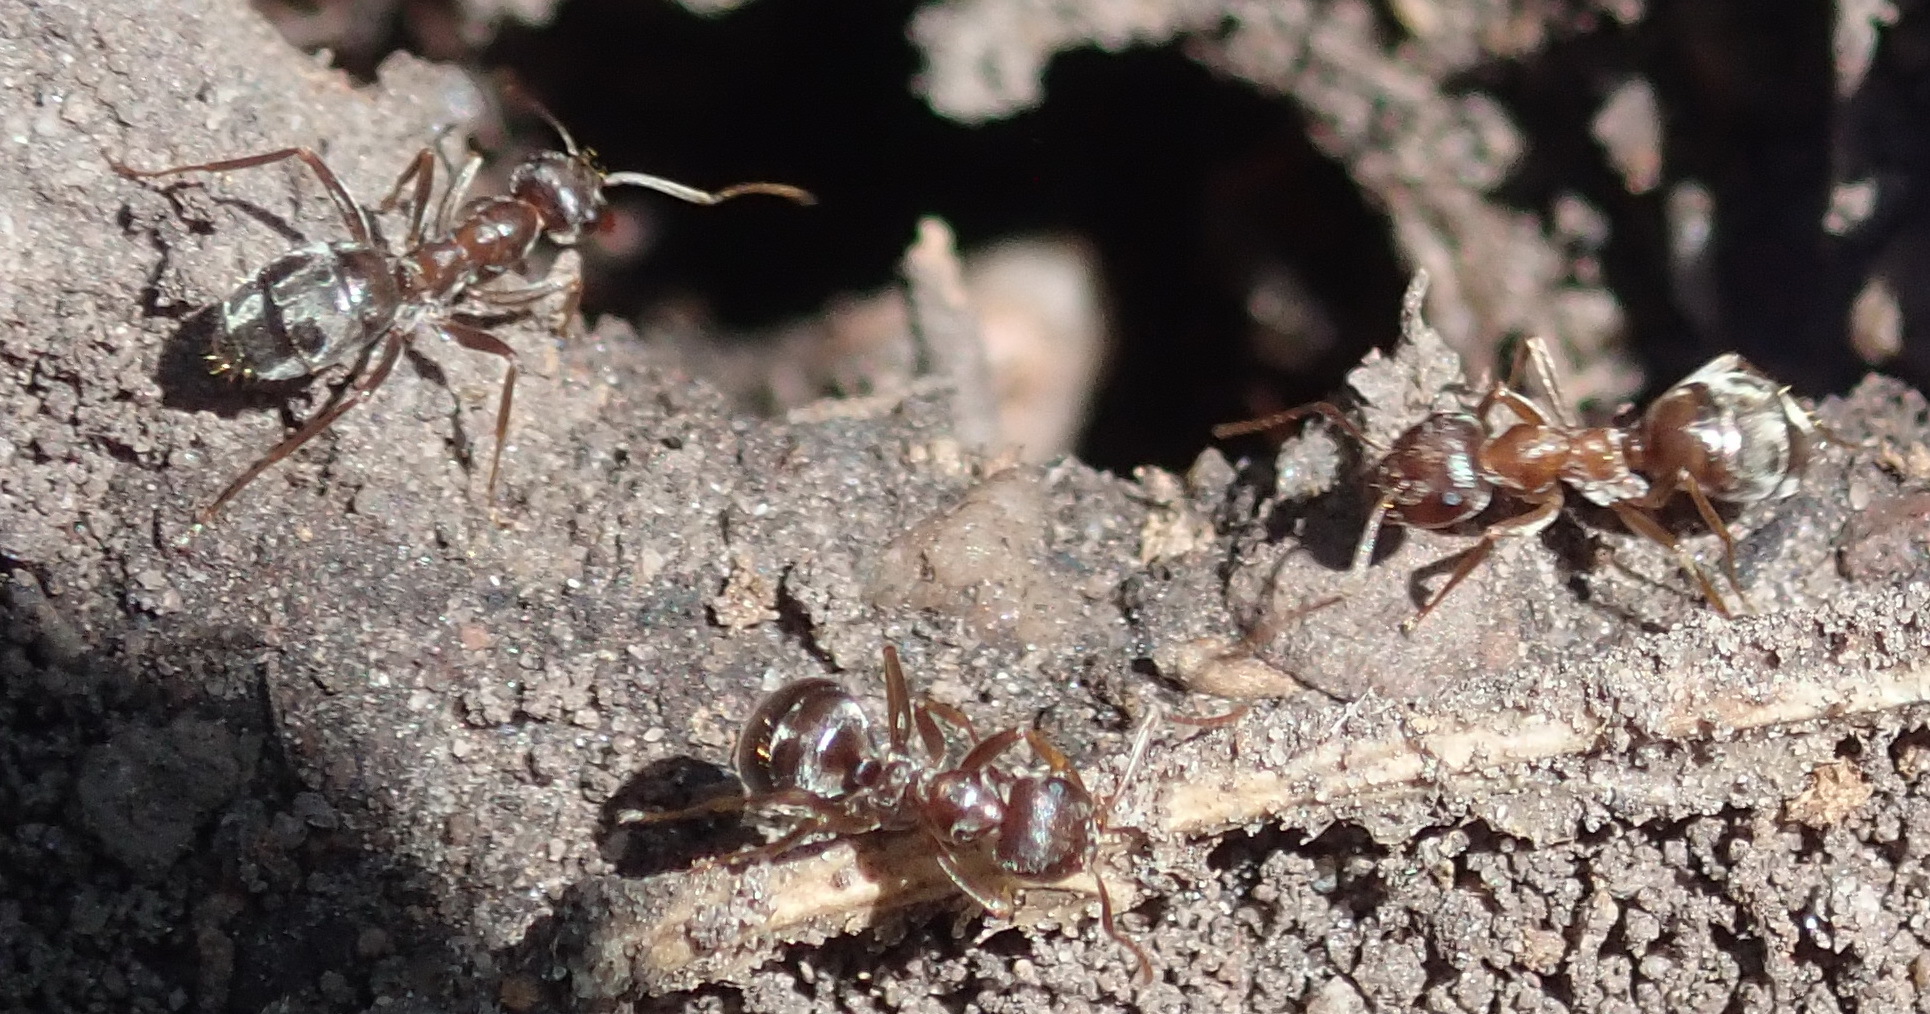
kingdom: Animalia
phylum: Arthropoda
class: Insecta
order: Hymenoptera
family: Formicidae
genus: Anoplolepis
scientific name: Anoplolepis steingroeveri
